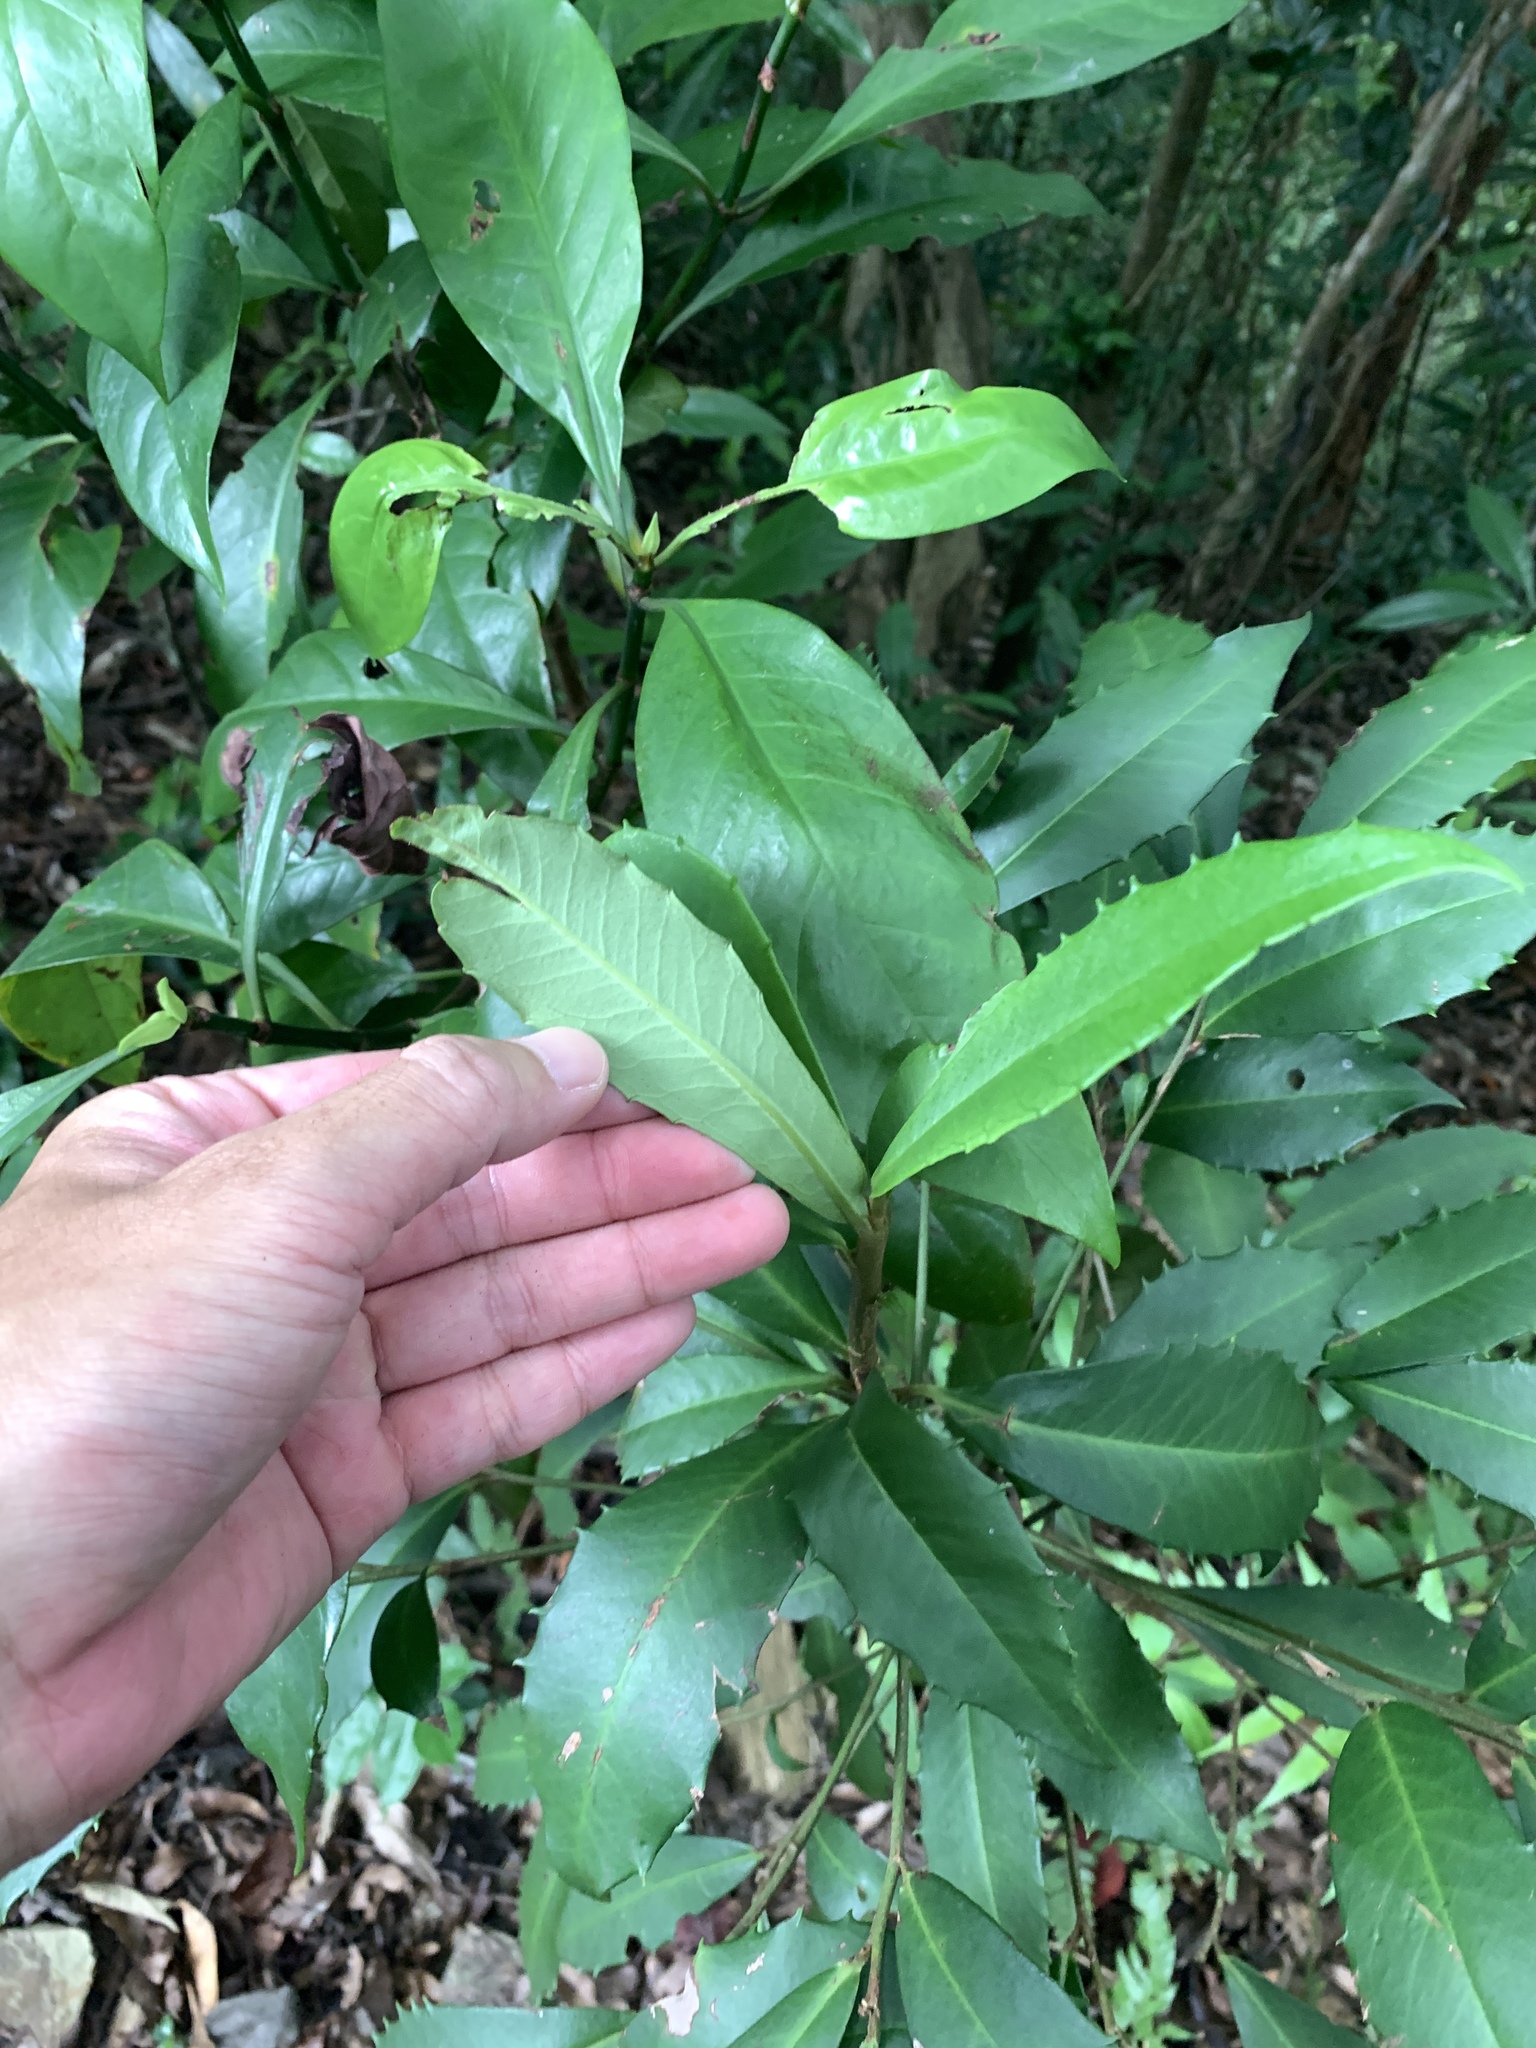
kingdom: Plantae
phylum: Tracheophyta
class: Magnoliopsida
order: Ericales
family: Primulaceae
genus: Ardisia
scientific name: Ardisia cornudentata
